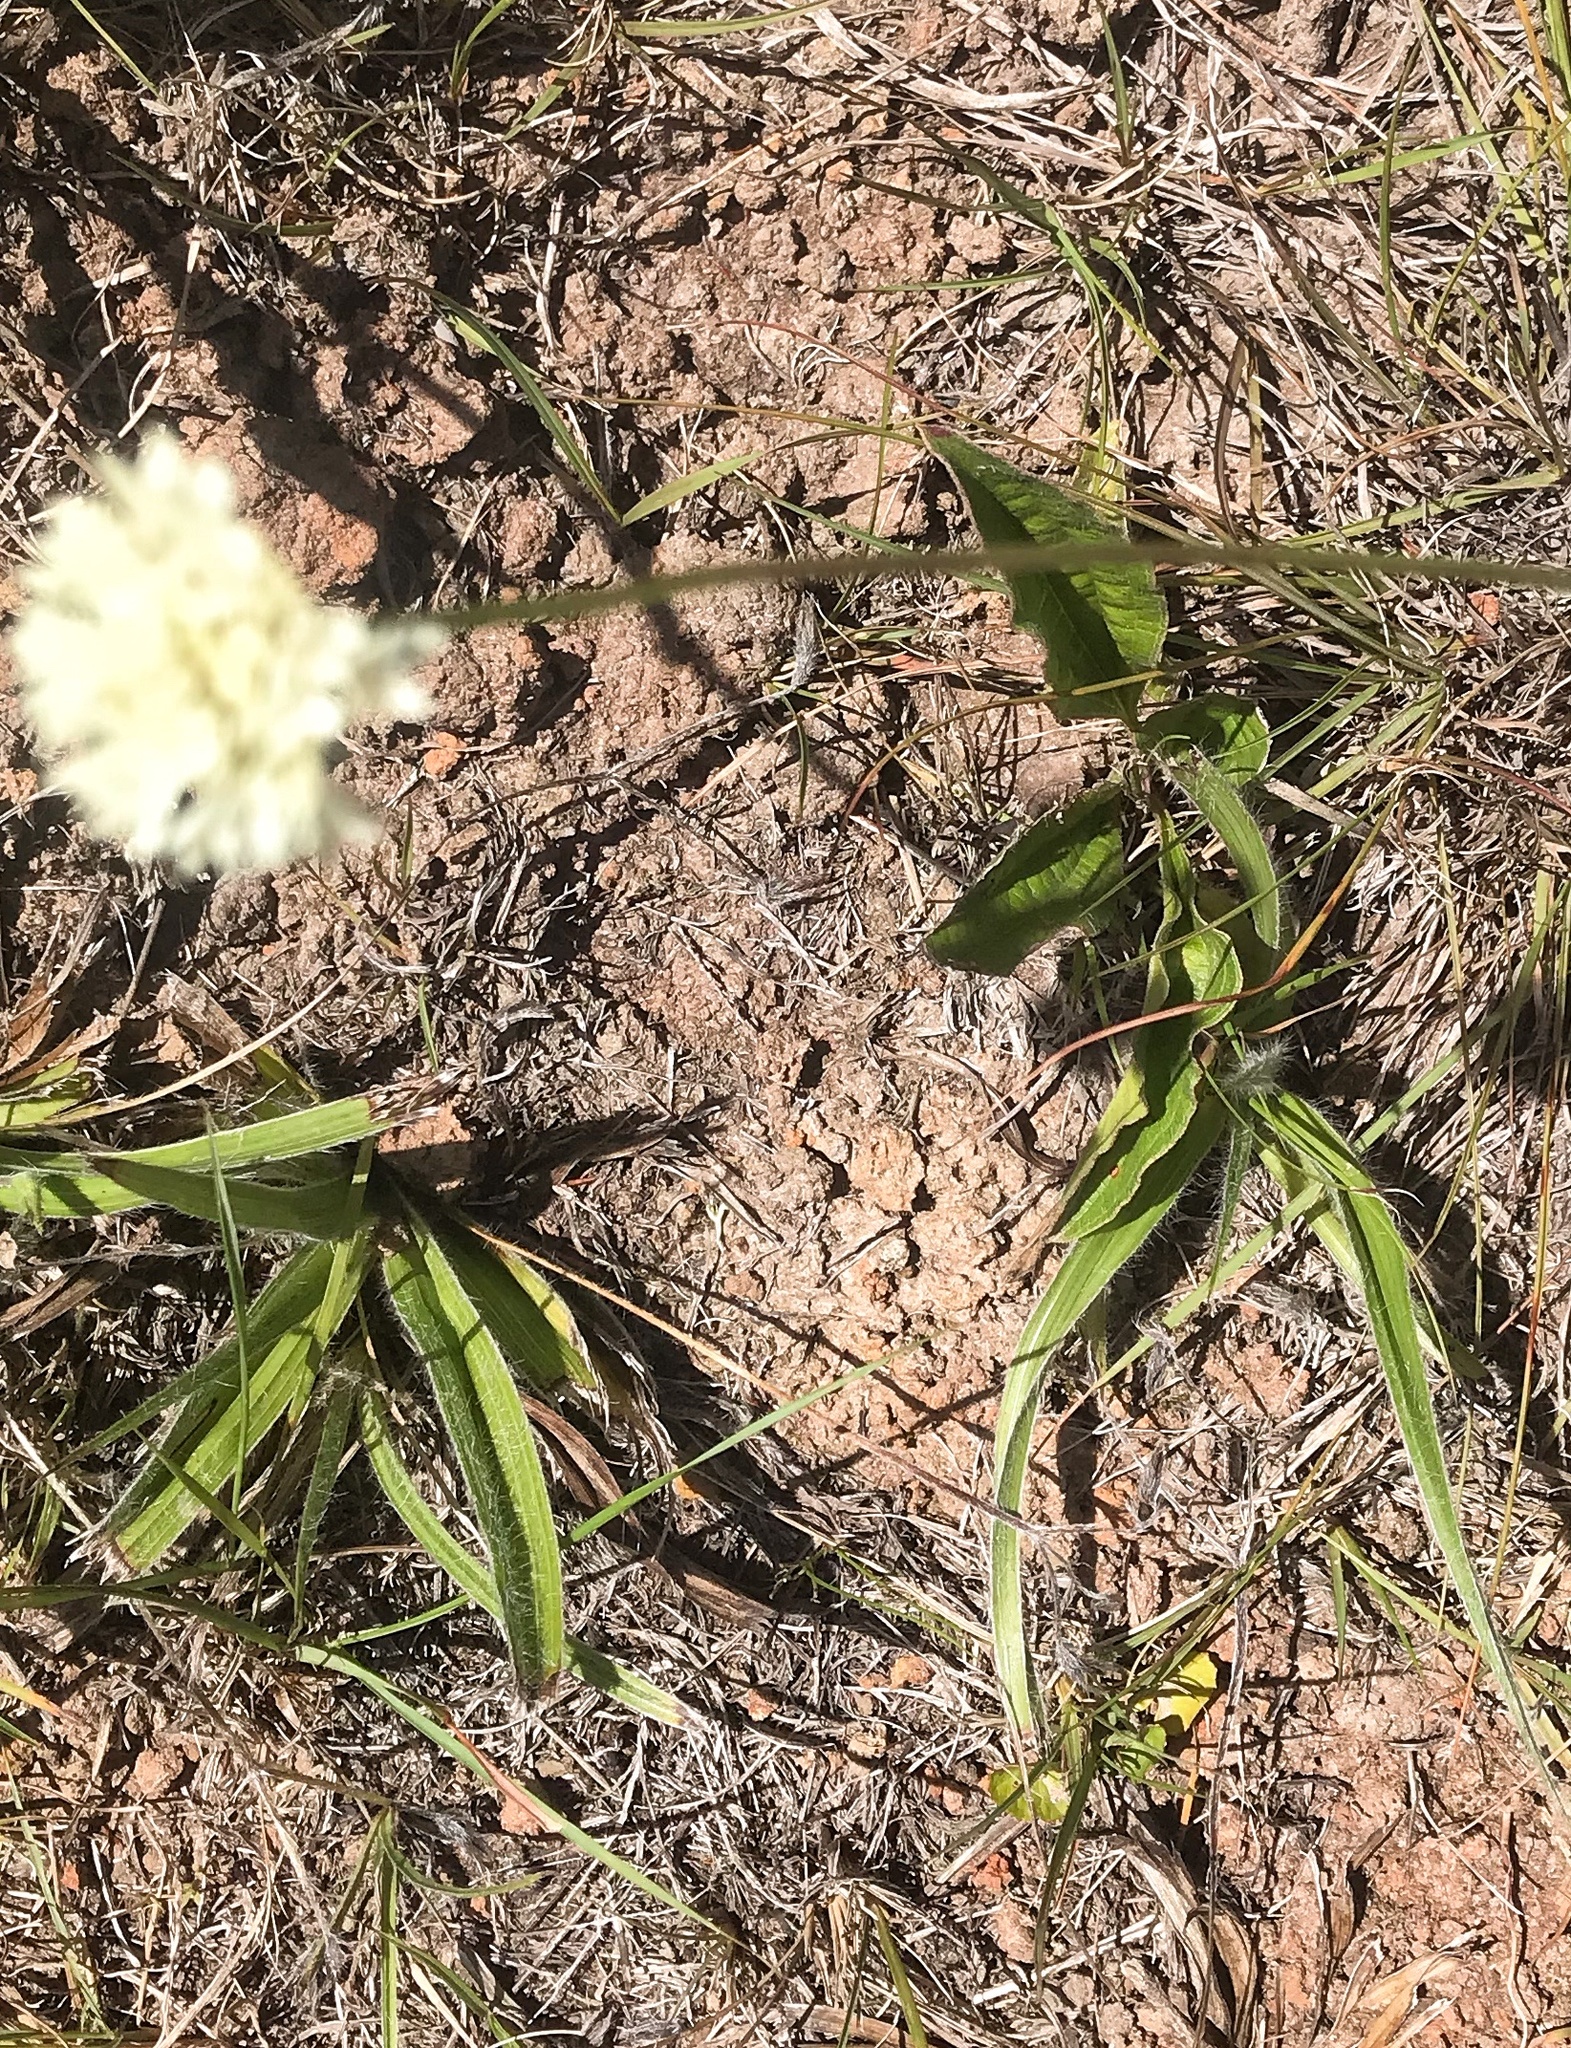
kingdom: Plantae
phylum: Tracheophyta
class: Magnoliopsida
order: Dipsacales
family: Caprifoliaceae
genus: Cephalaria
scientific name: Cephalaria humilis
